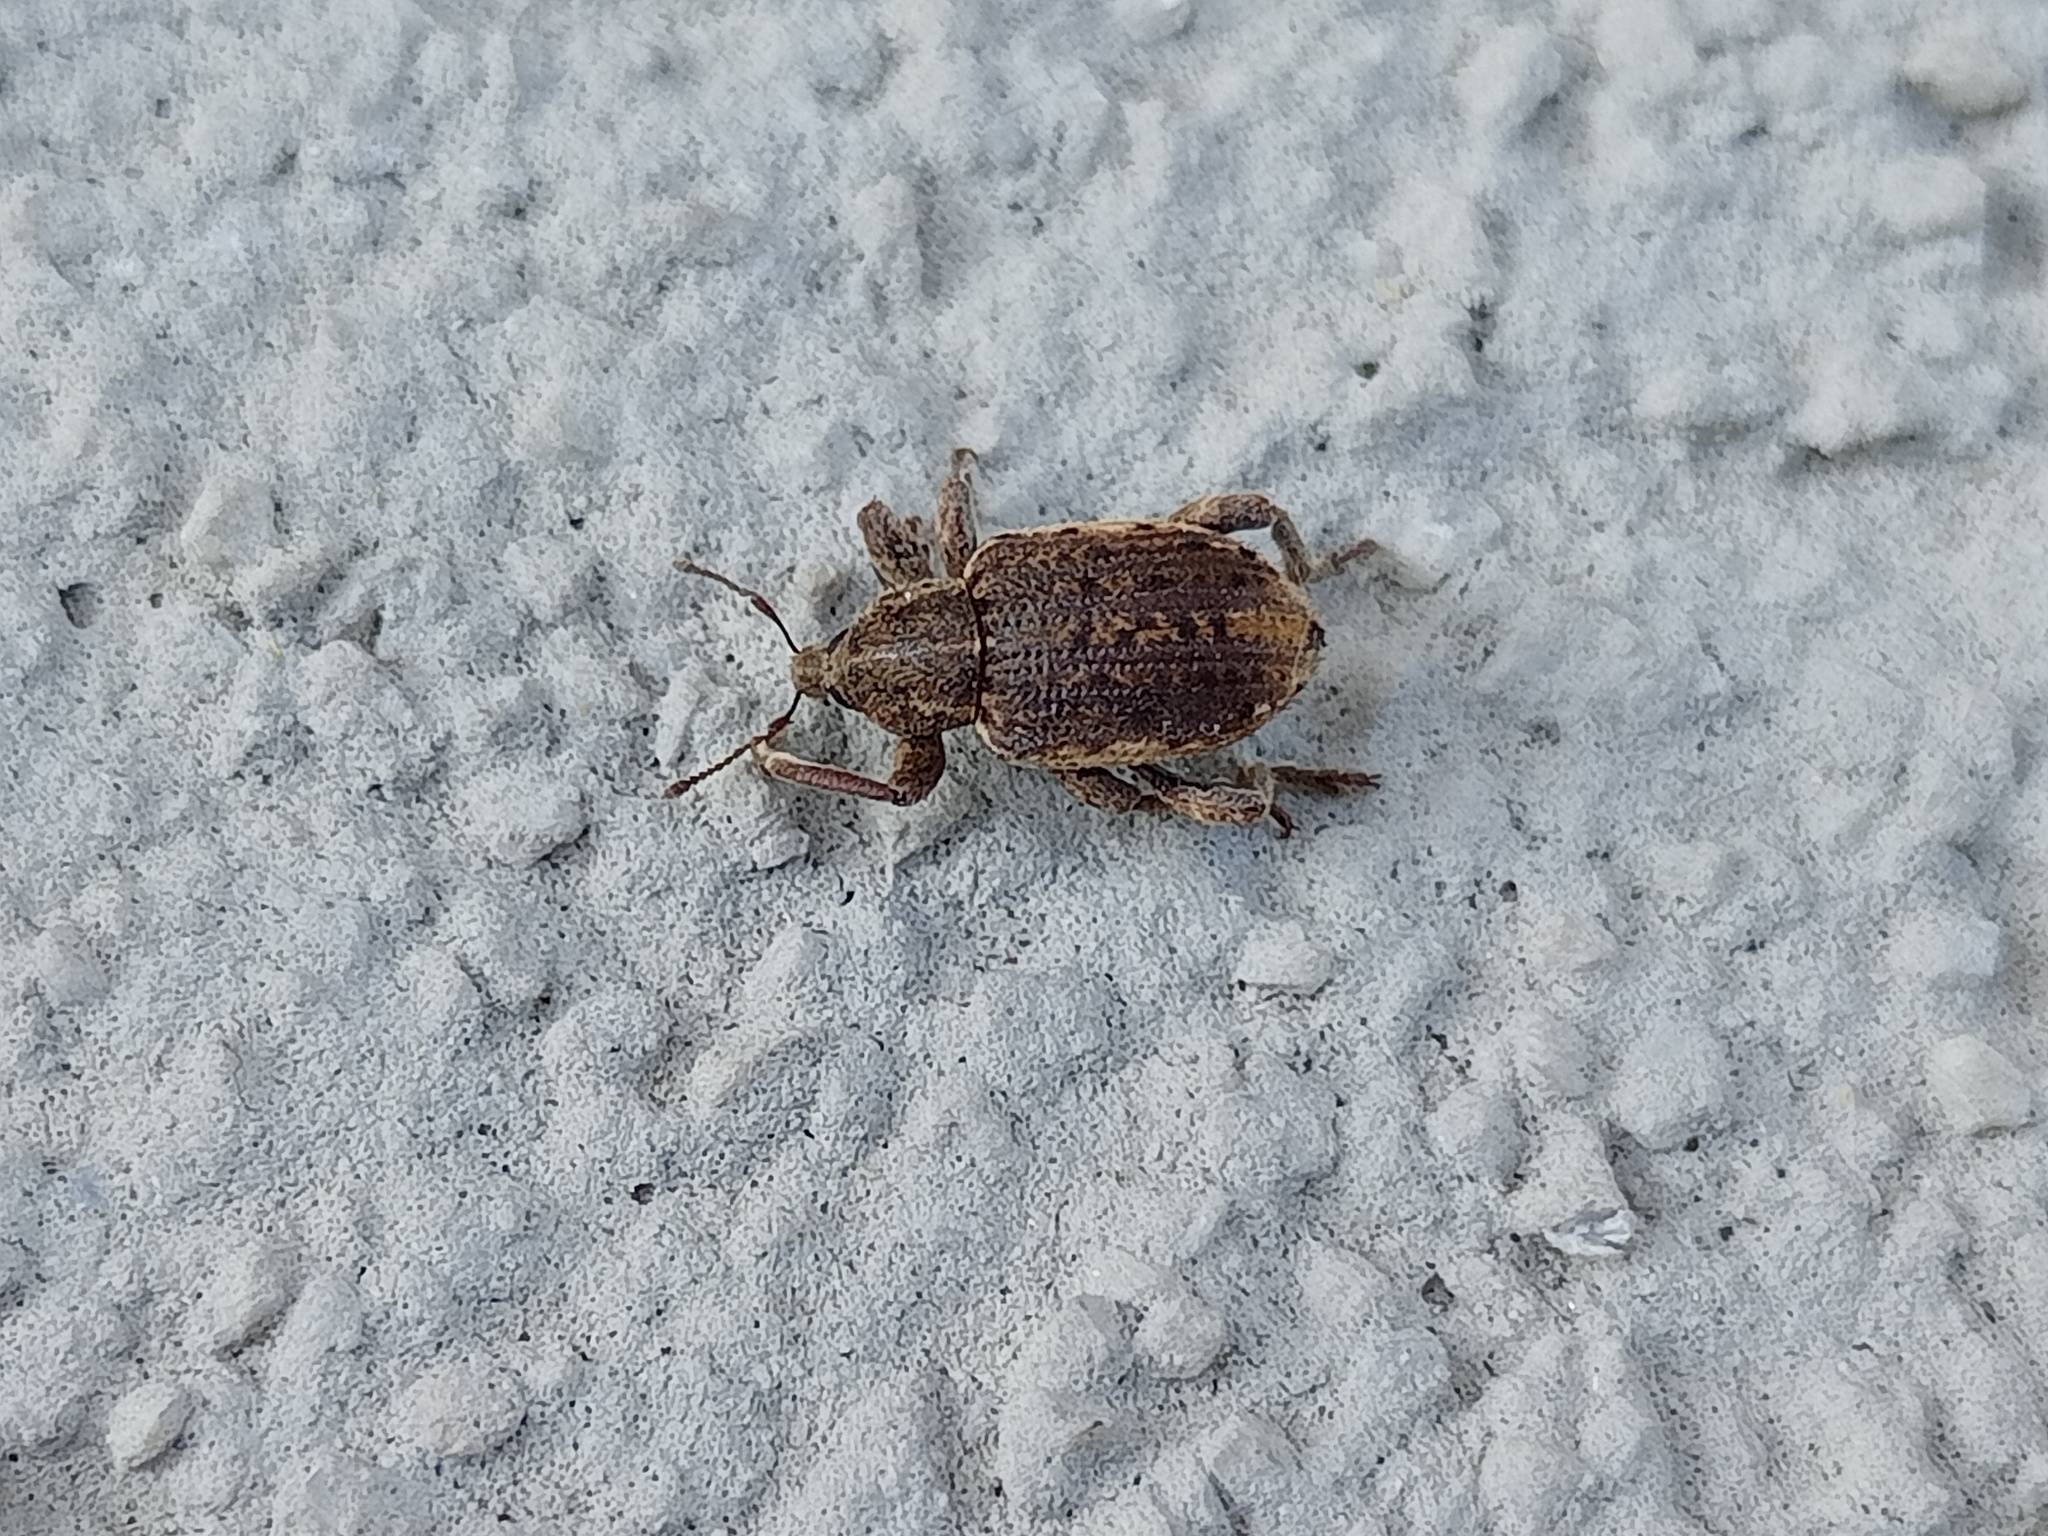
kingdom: Animalia
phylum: Arthropoda
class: Insecta
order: Coleoptera
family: Curculionidae
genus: Brachypera
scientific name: Brachypera zoilus
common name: Clover leaf weevil
